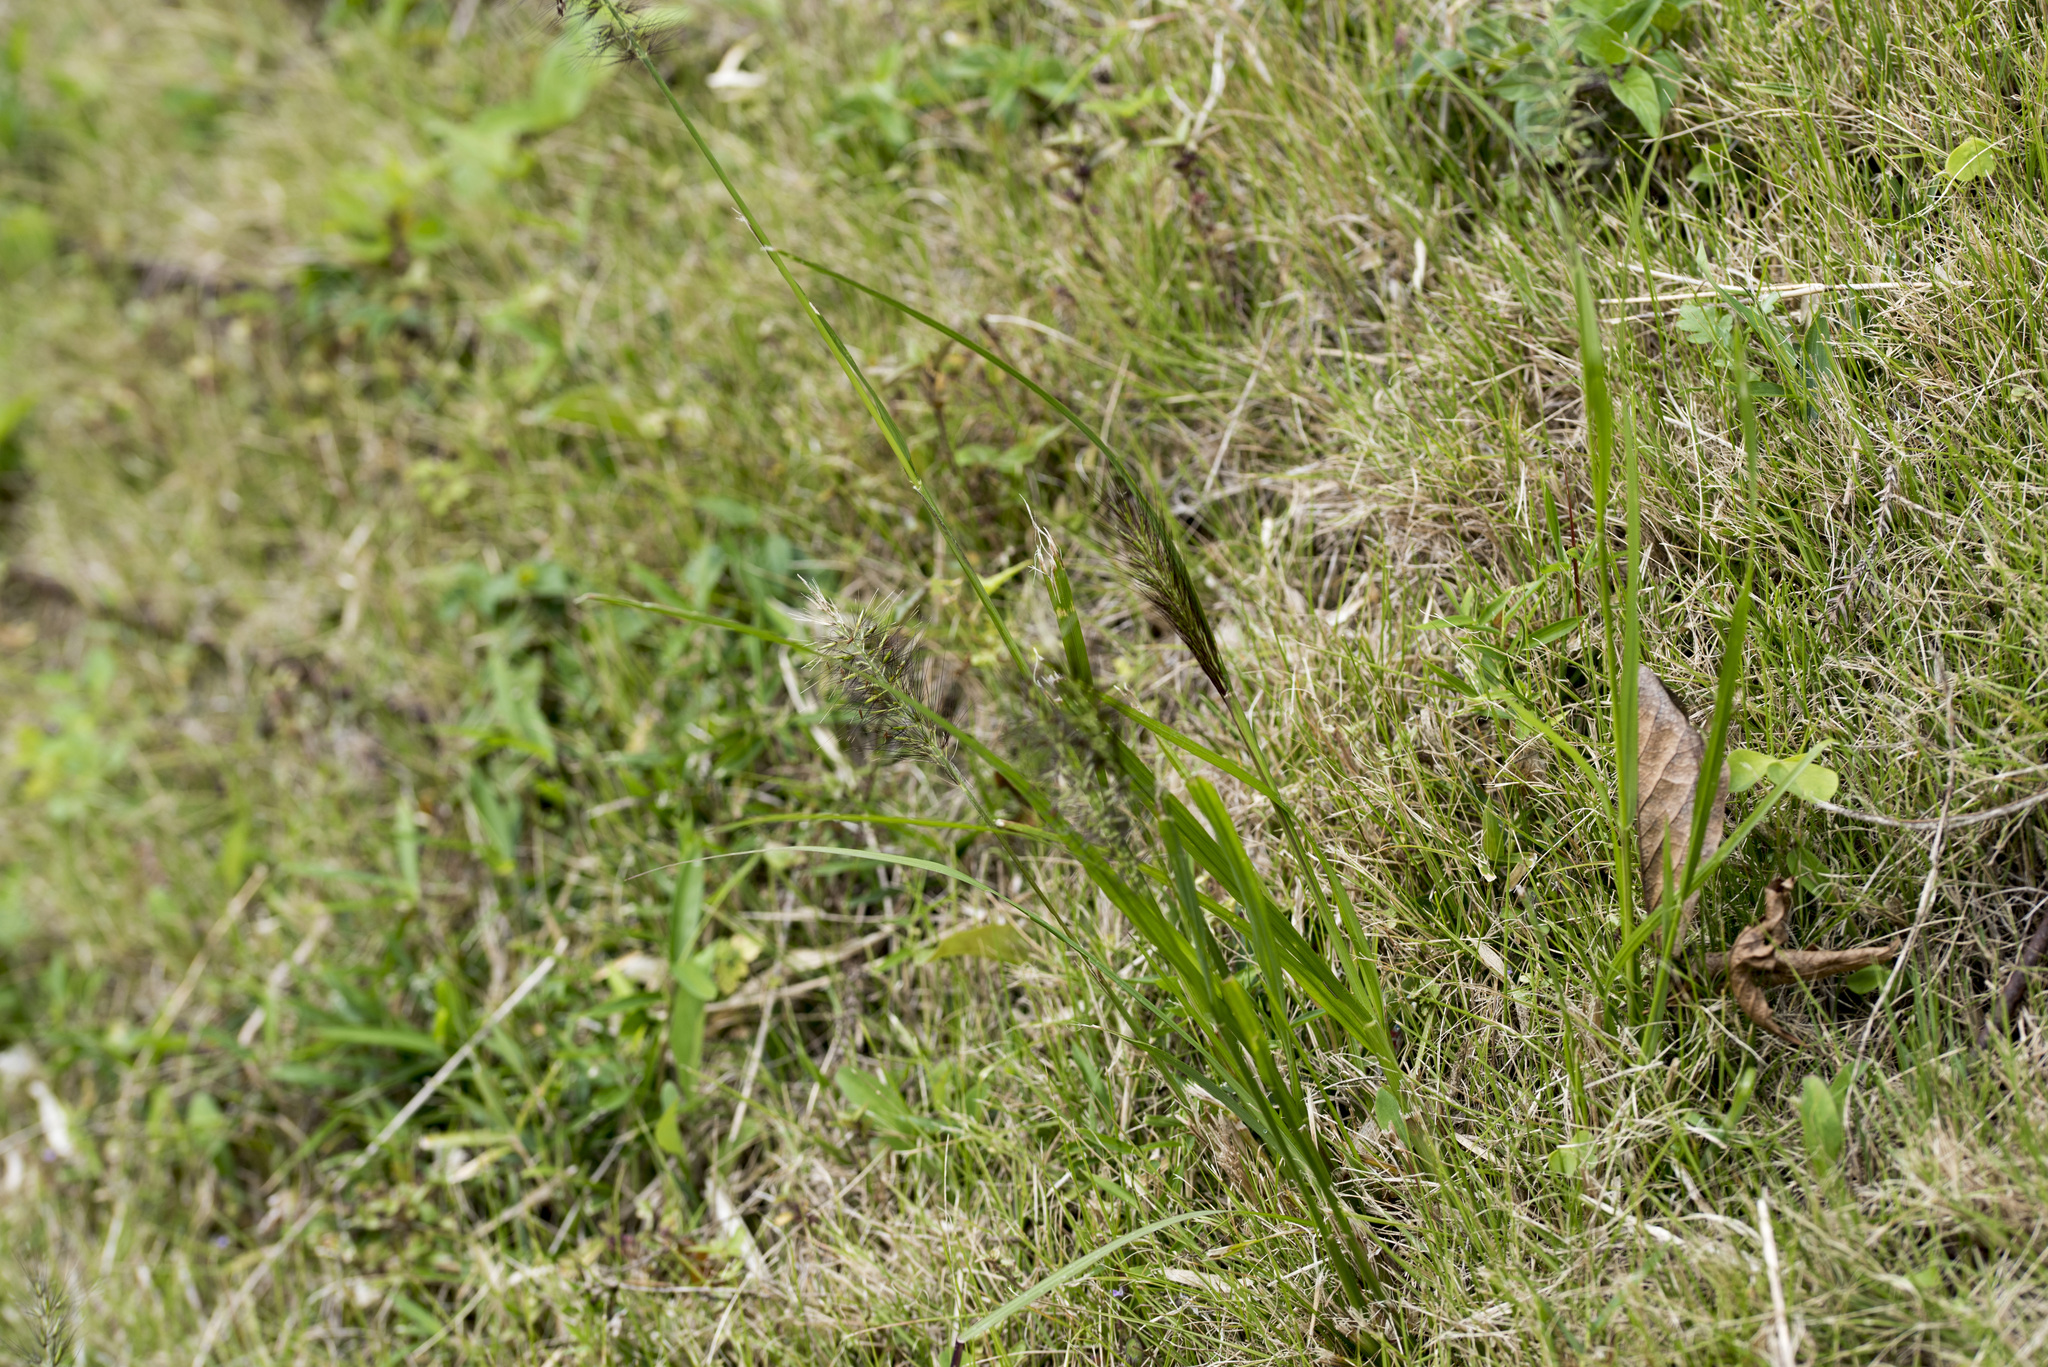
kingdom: Plantae
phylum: Tracheophyta
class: Liliopsida
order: Poales
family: Poaceae
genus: Cenchrus
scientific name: Cenchrus alopecuroides
